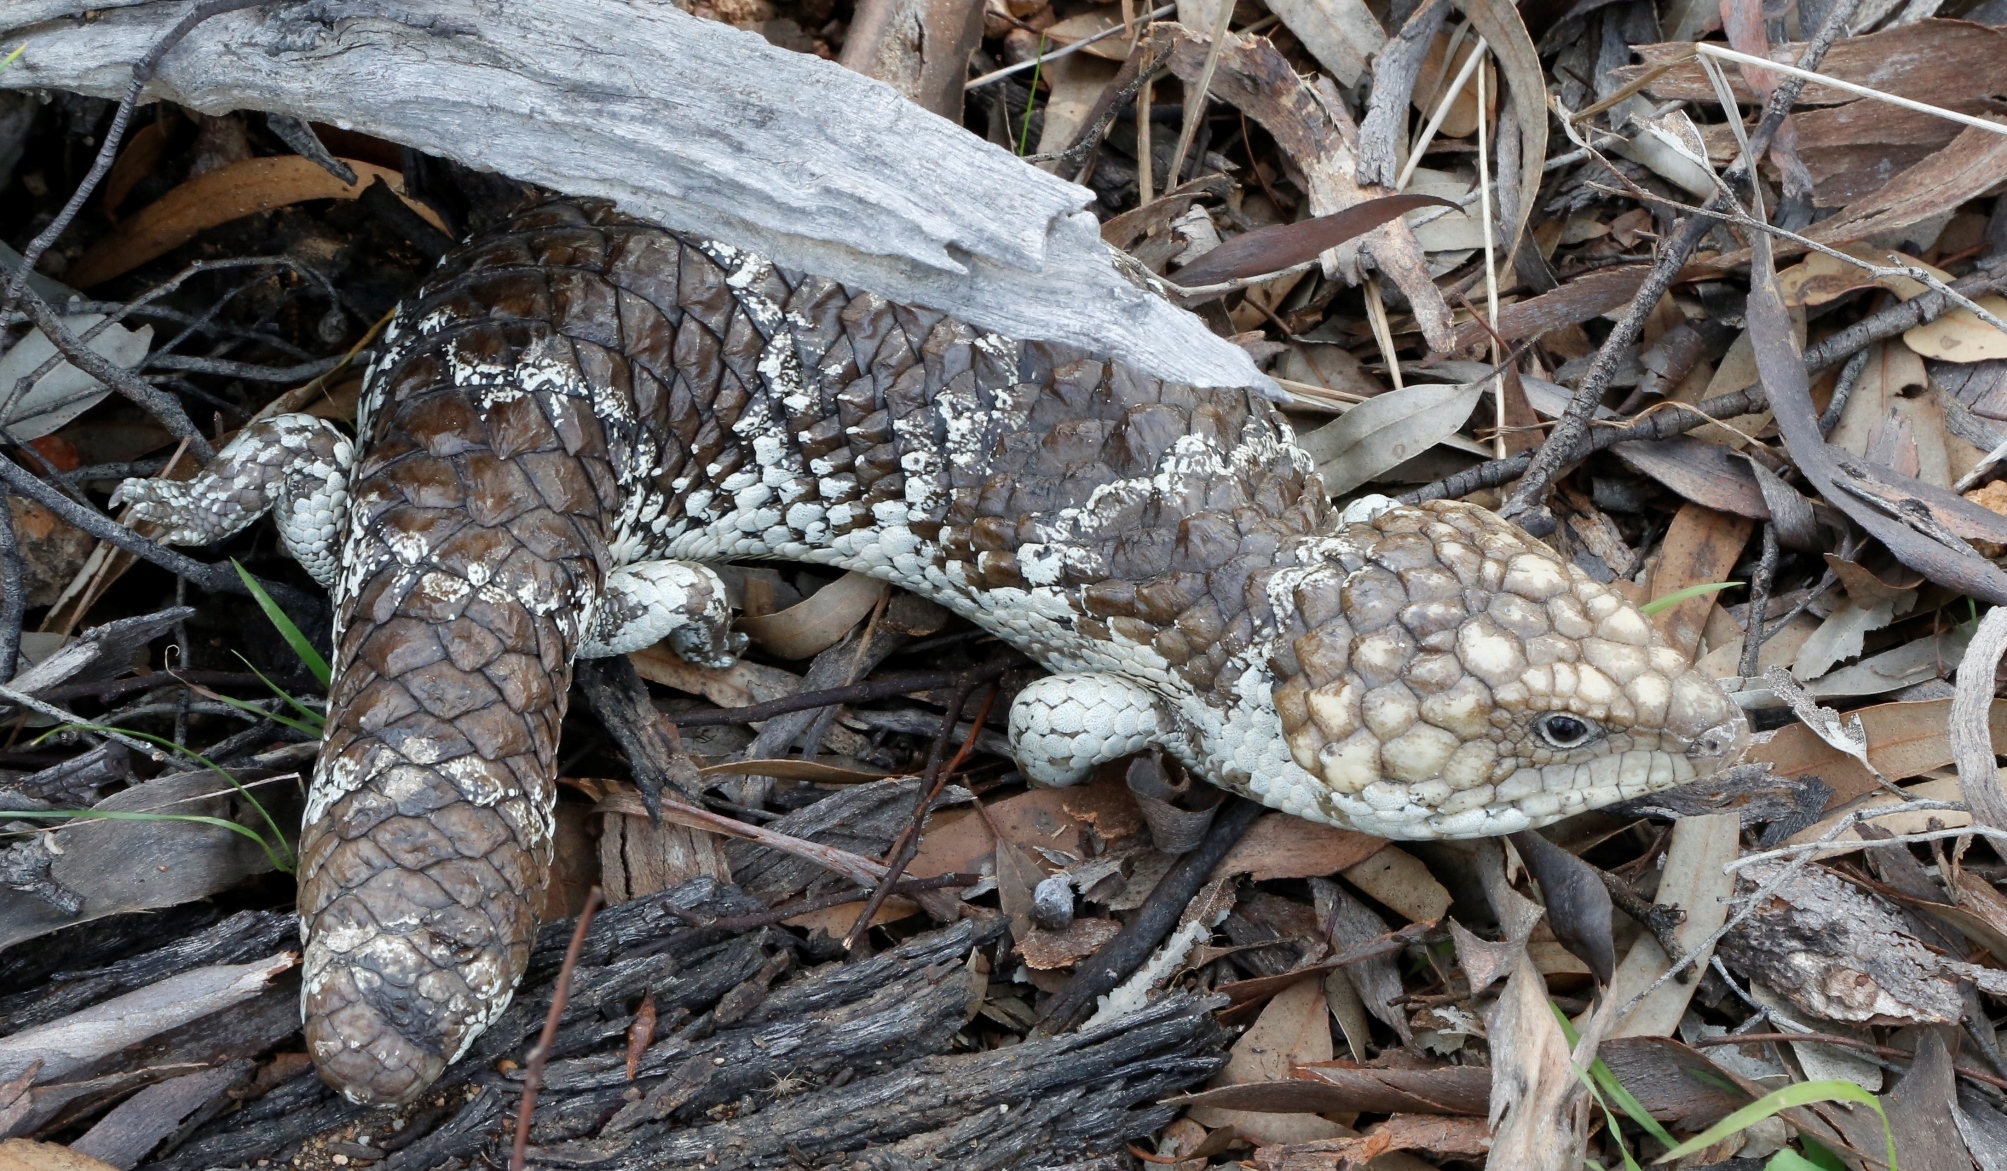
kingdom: Animalia
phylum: Chordata
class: Squamata
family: Scincidae
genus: Tiliqua
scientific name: Tiliqua rugosa
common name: Pinecone lizard
